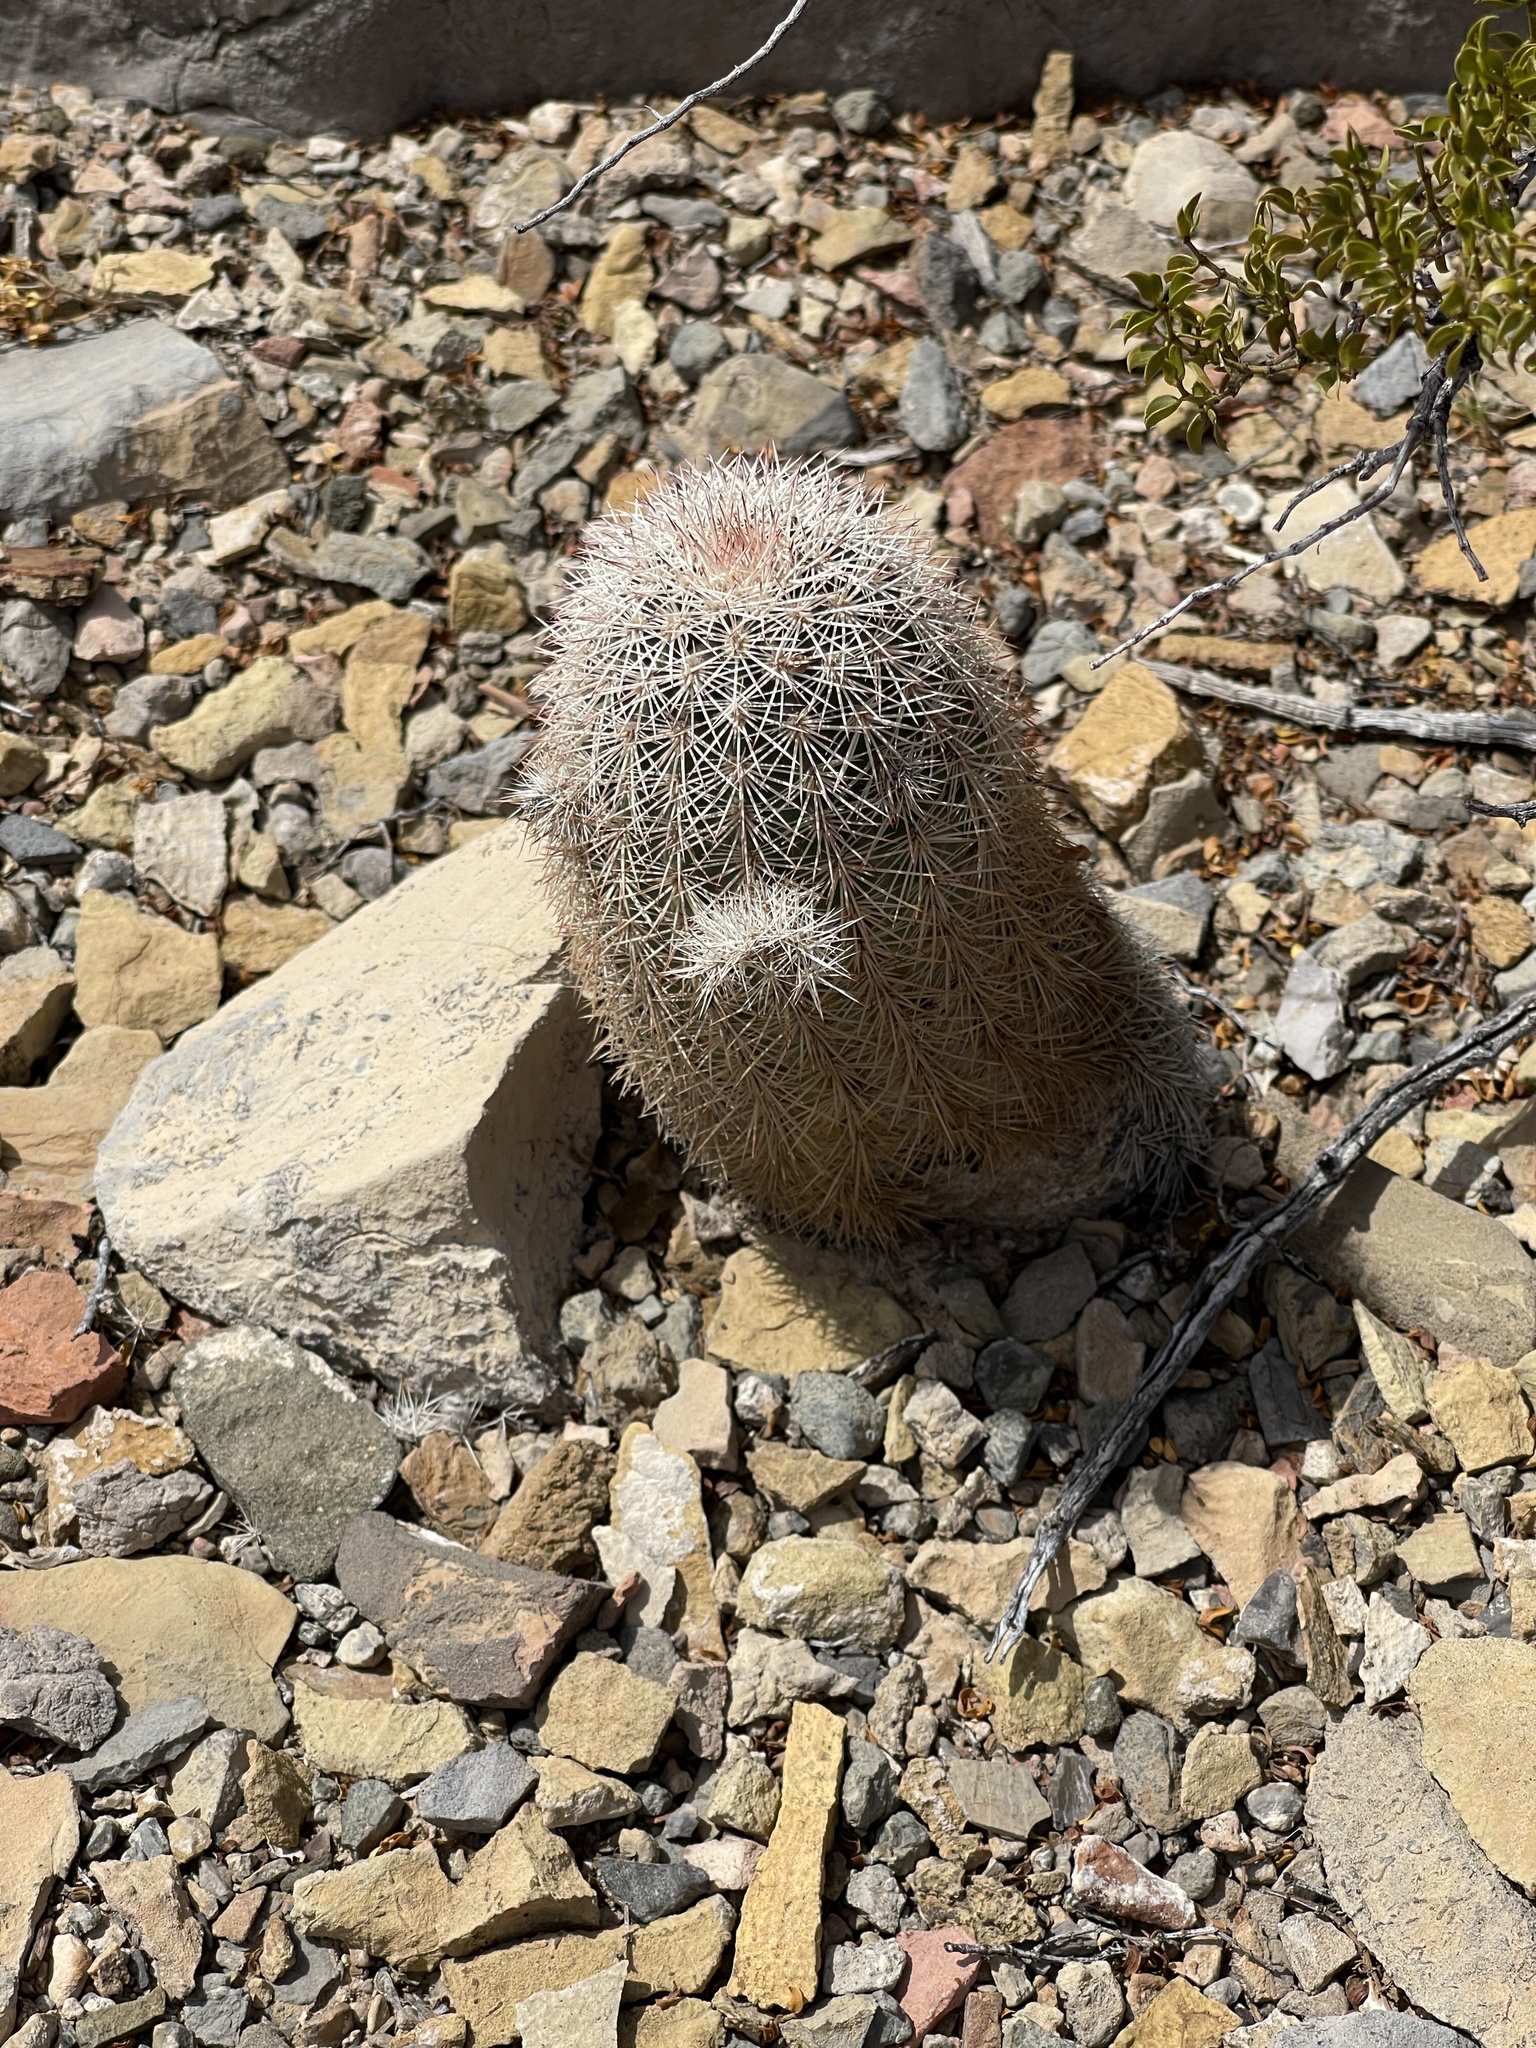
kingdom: Plantae
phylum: Tracheophyta
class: Magnoliopsida
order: Caryophyllales
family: Cactaceae
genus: Echinocereus
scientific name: Echinocereus dasyacanthus
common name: Spiny hedgehog cactus
